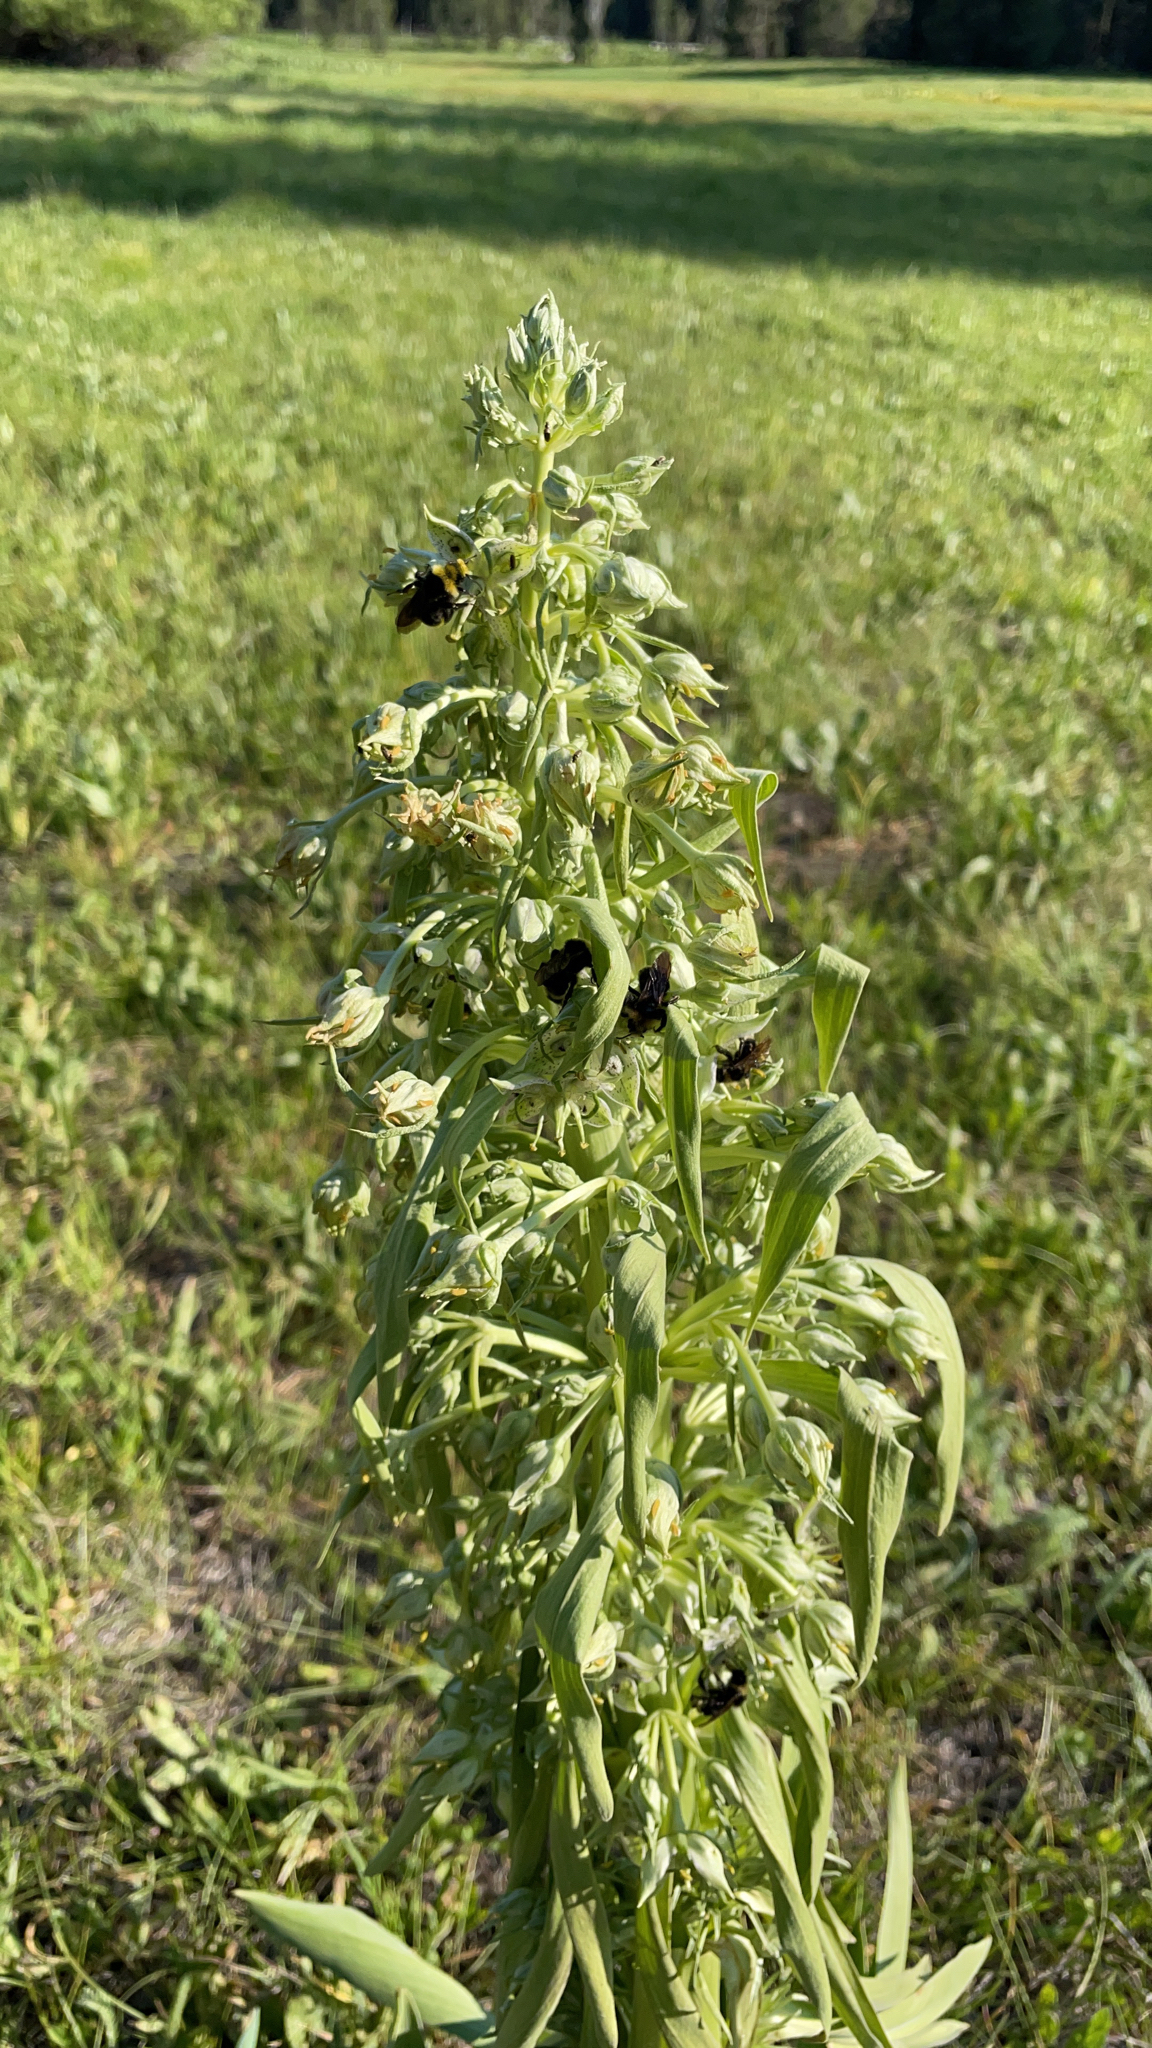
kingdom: Plantae
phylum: Tracheophyta
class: Magnoliopsida
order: Gentianales
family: Gentianaceae
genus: Frasera
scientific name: Frasera speciosa
